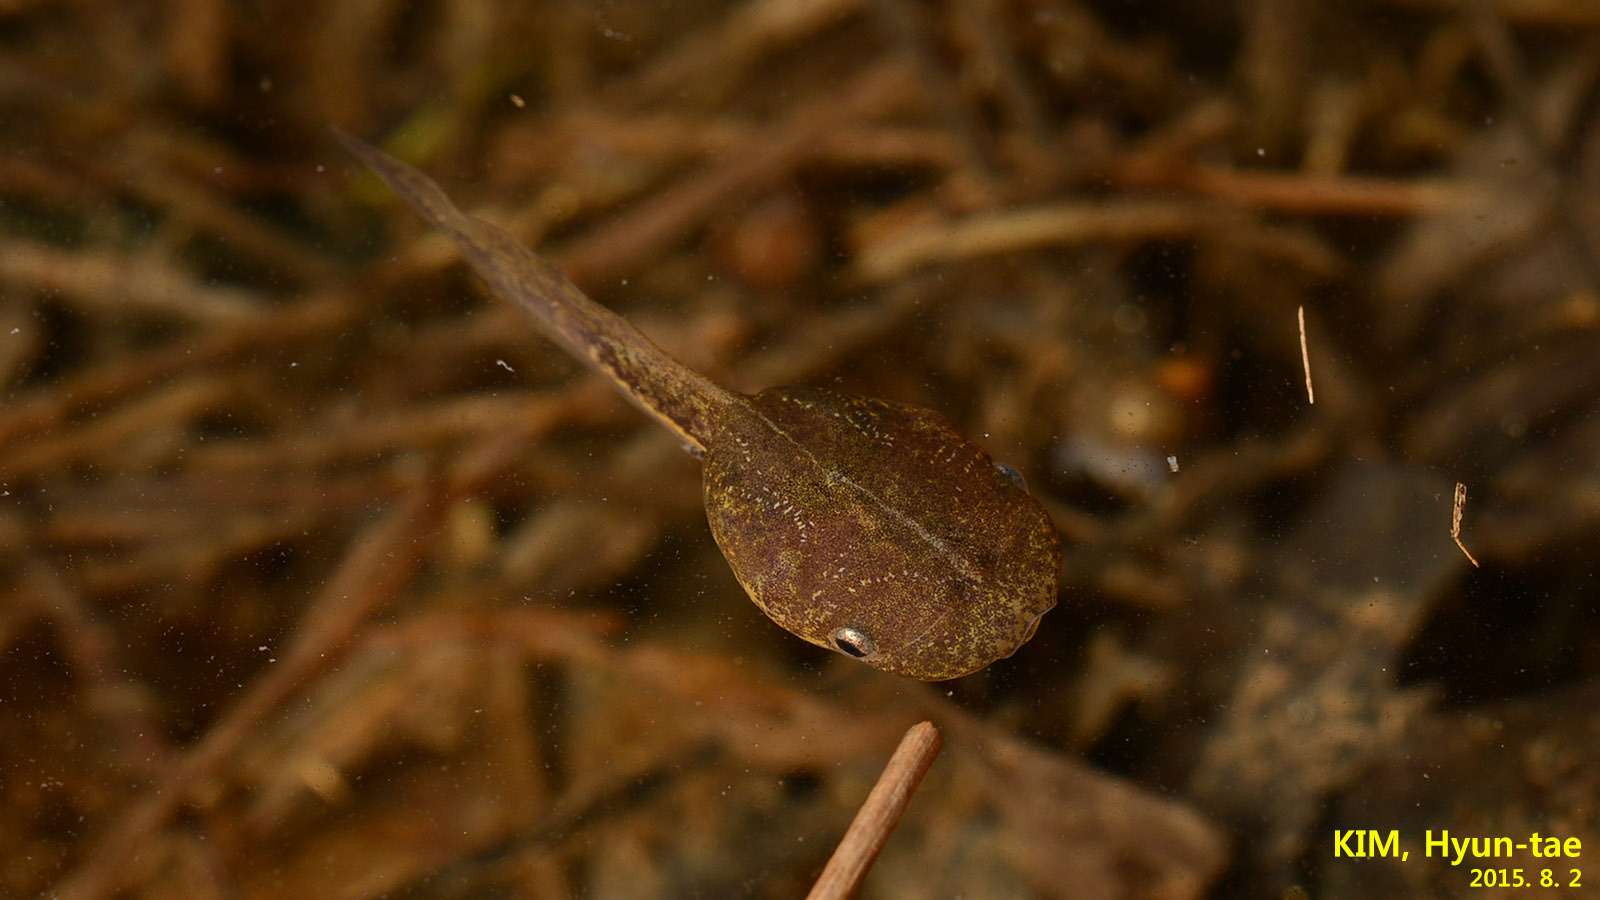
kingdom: Animalia
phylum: Chordata
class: Amphibia
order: Anura
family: Microhylidae
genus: Kaloula
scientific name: Kaloula borealis
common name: Boreal digging frog
